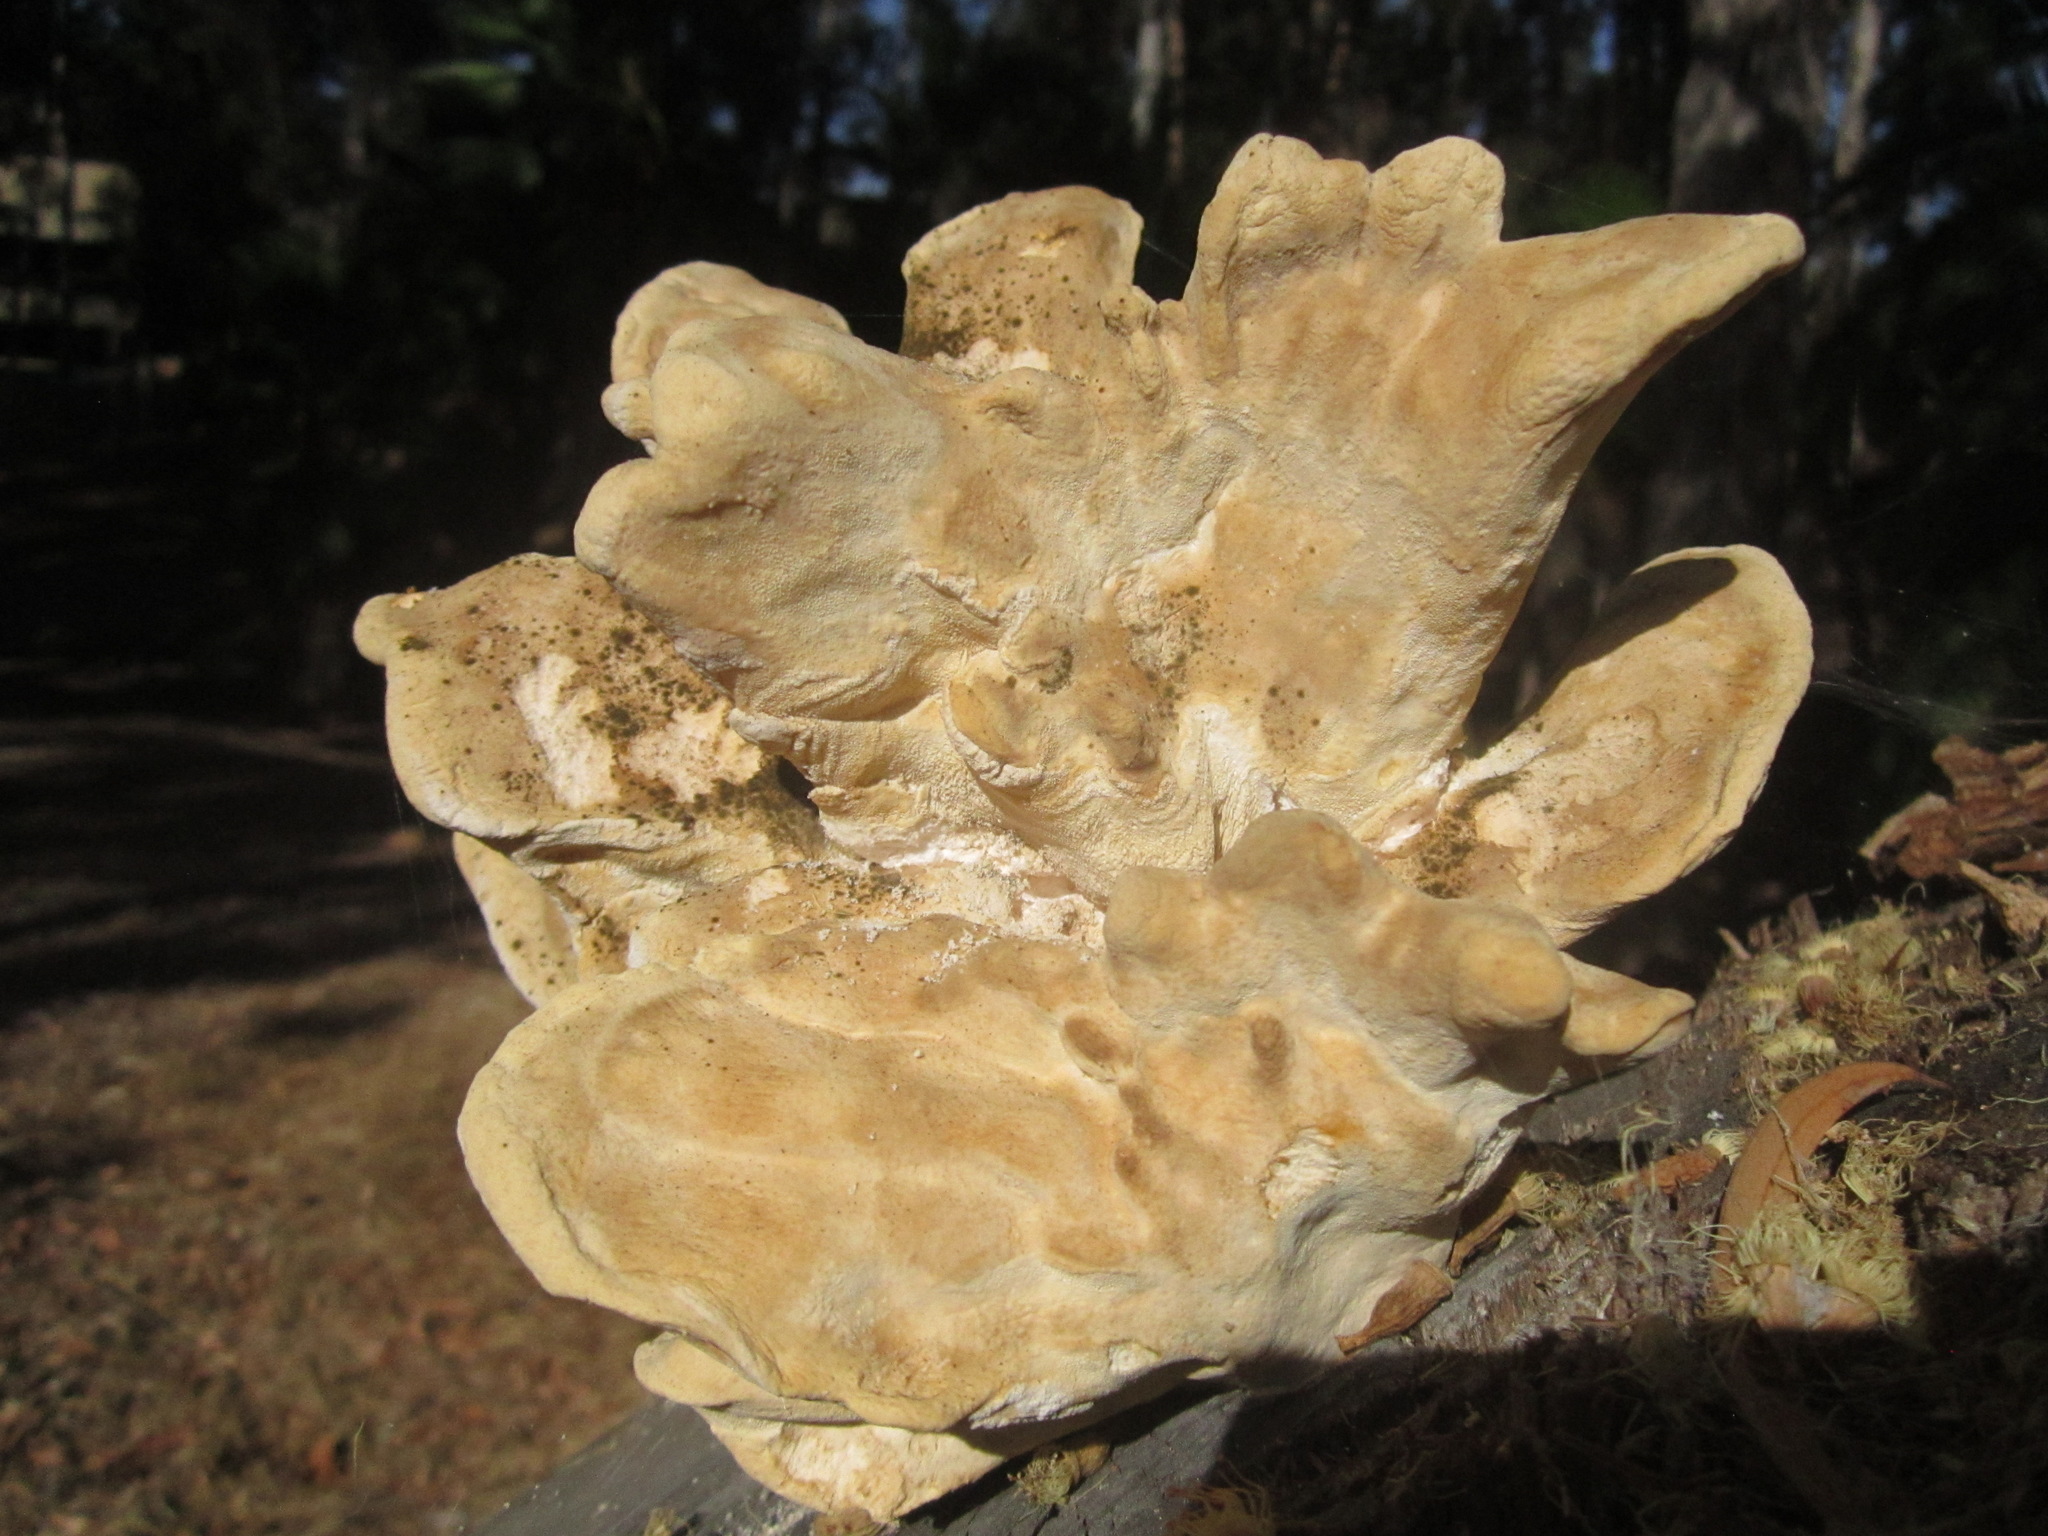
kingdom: Fungi
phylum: Basidiomycota
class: Agaricomycetes
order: Polyporales
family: Laetiporaceae
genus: Laetiporus
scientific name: Laetiporus gilbertsonii
